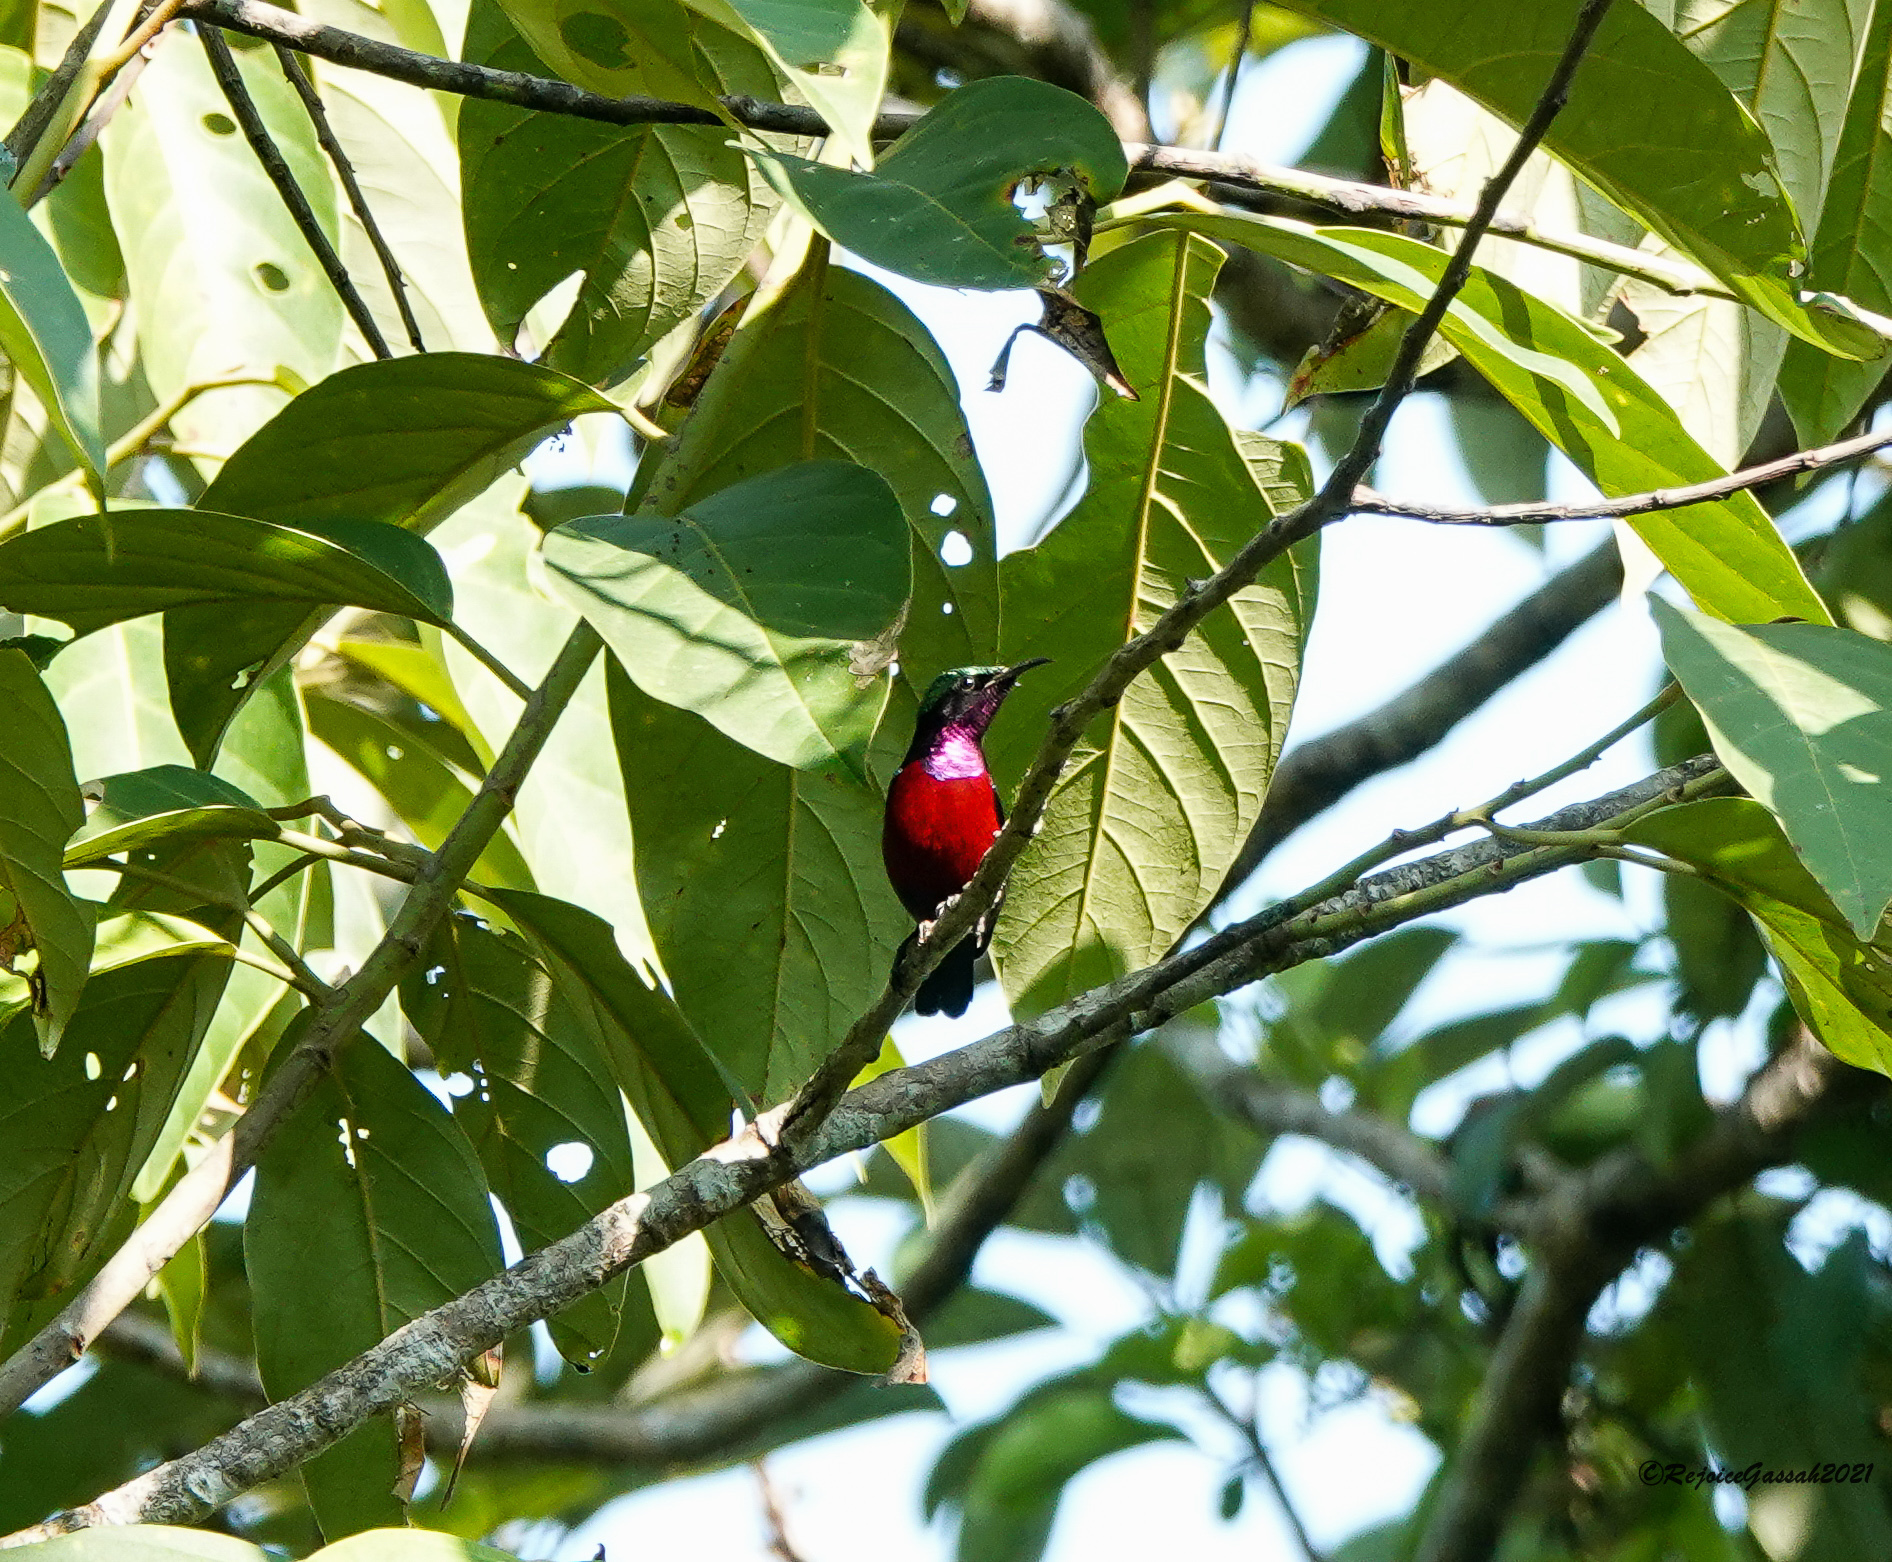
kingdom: Animalia
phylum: Chordata
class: Aves
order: Passeriformes
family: Nectariniidae
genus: Leptocoma
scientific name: Leptocoma brasiliana
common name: Van hasselt's sunbird
